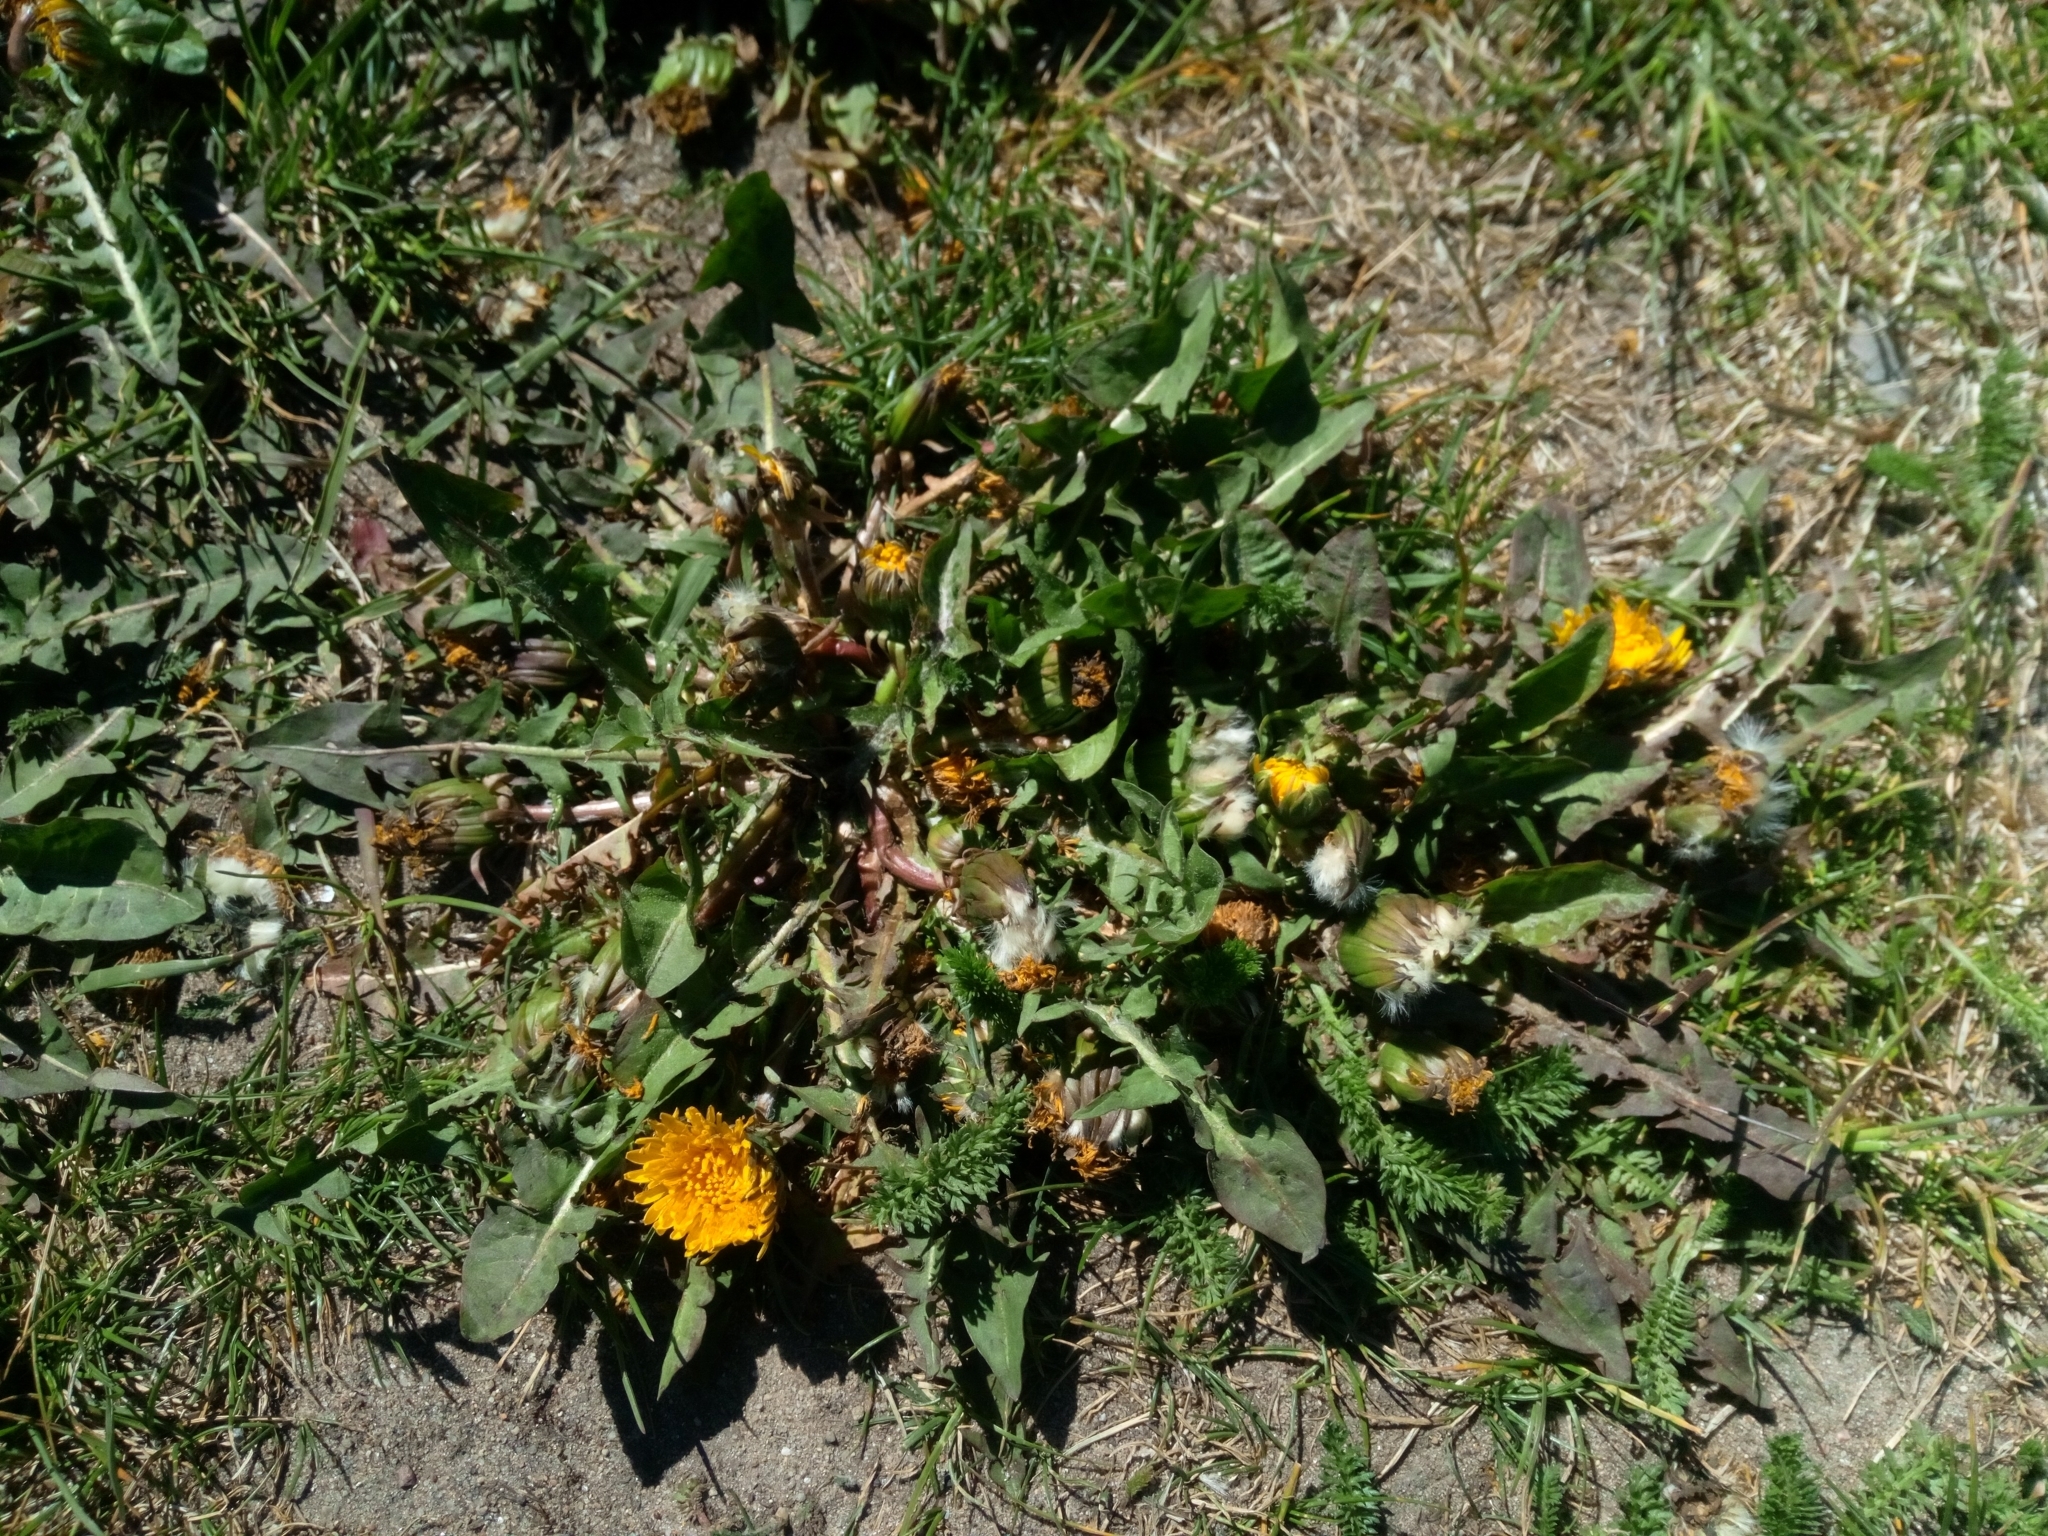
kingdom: Plantae
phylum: Tracheophyta
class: Magnoliopsida
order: Asterales
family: Asteraceae
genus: Taraxacum
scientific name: Taraxacum
